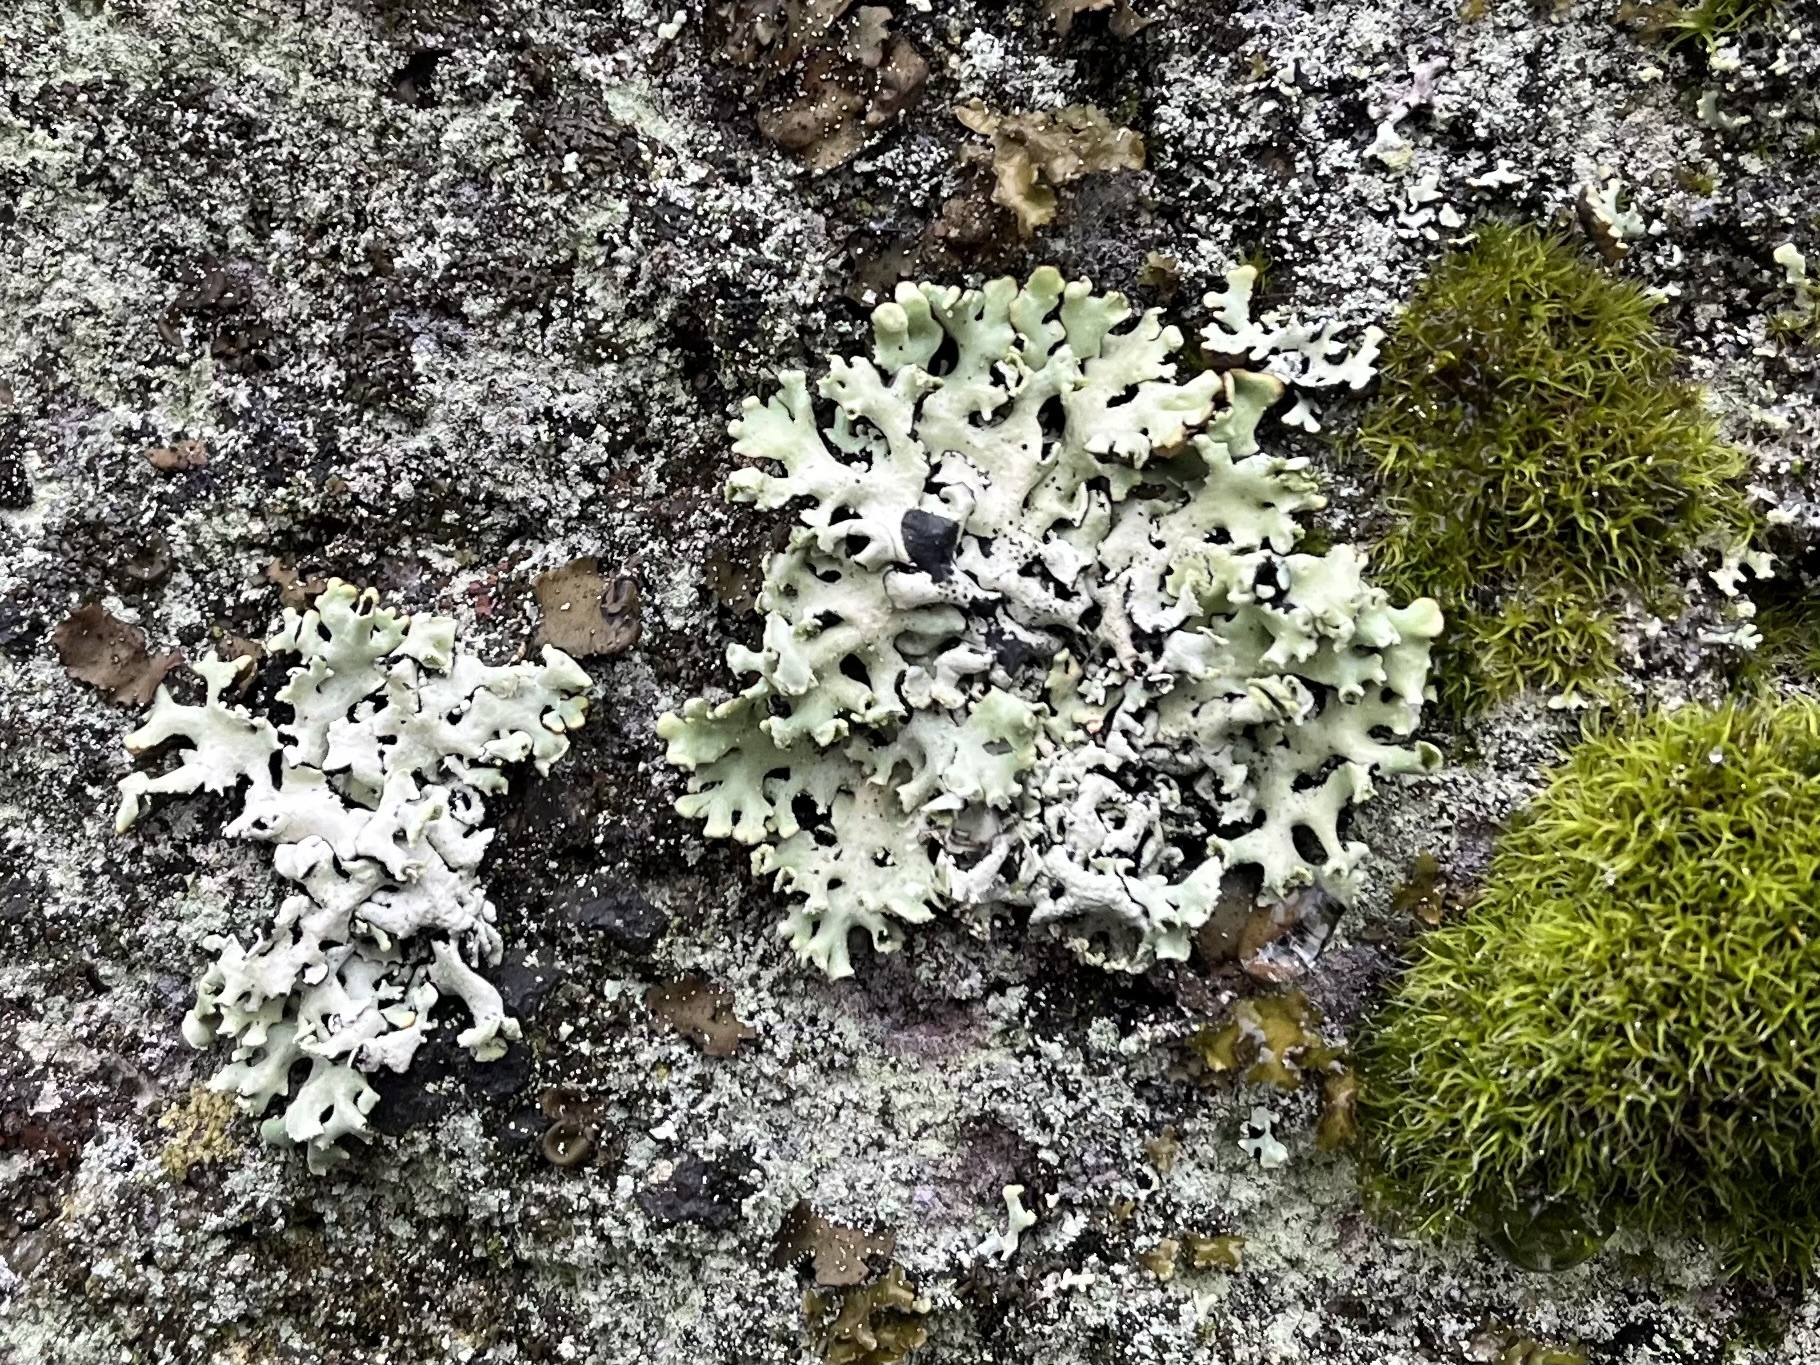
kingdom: Fungi
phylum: Ascomycota
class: Lecanoromycetes
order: Lecanorales
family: Parmeliaceae
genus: Hypogymnia
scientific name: Hypogymnia physodes
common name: Dark crottle
